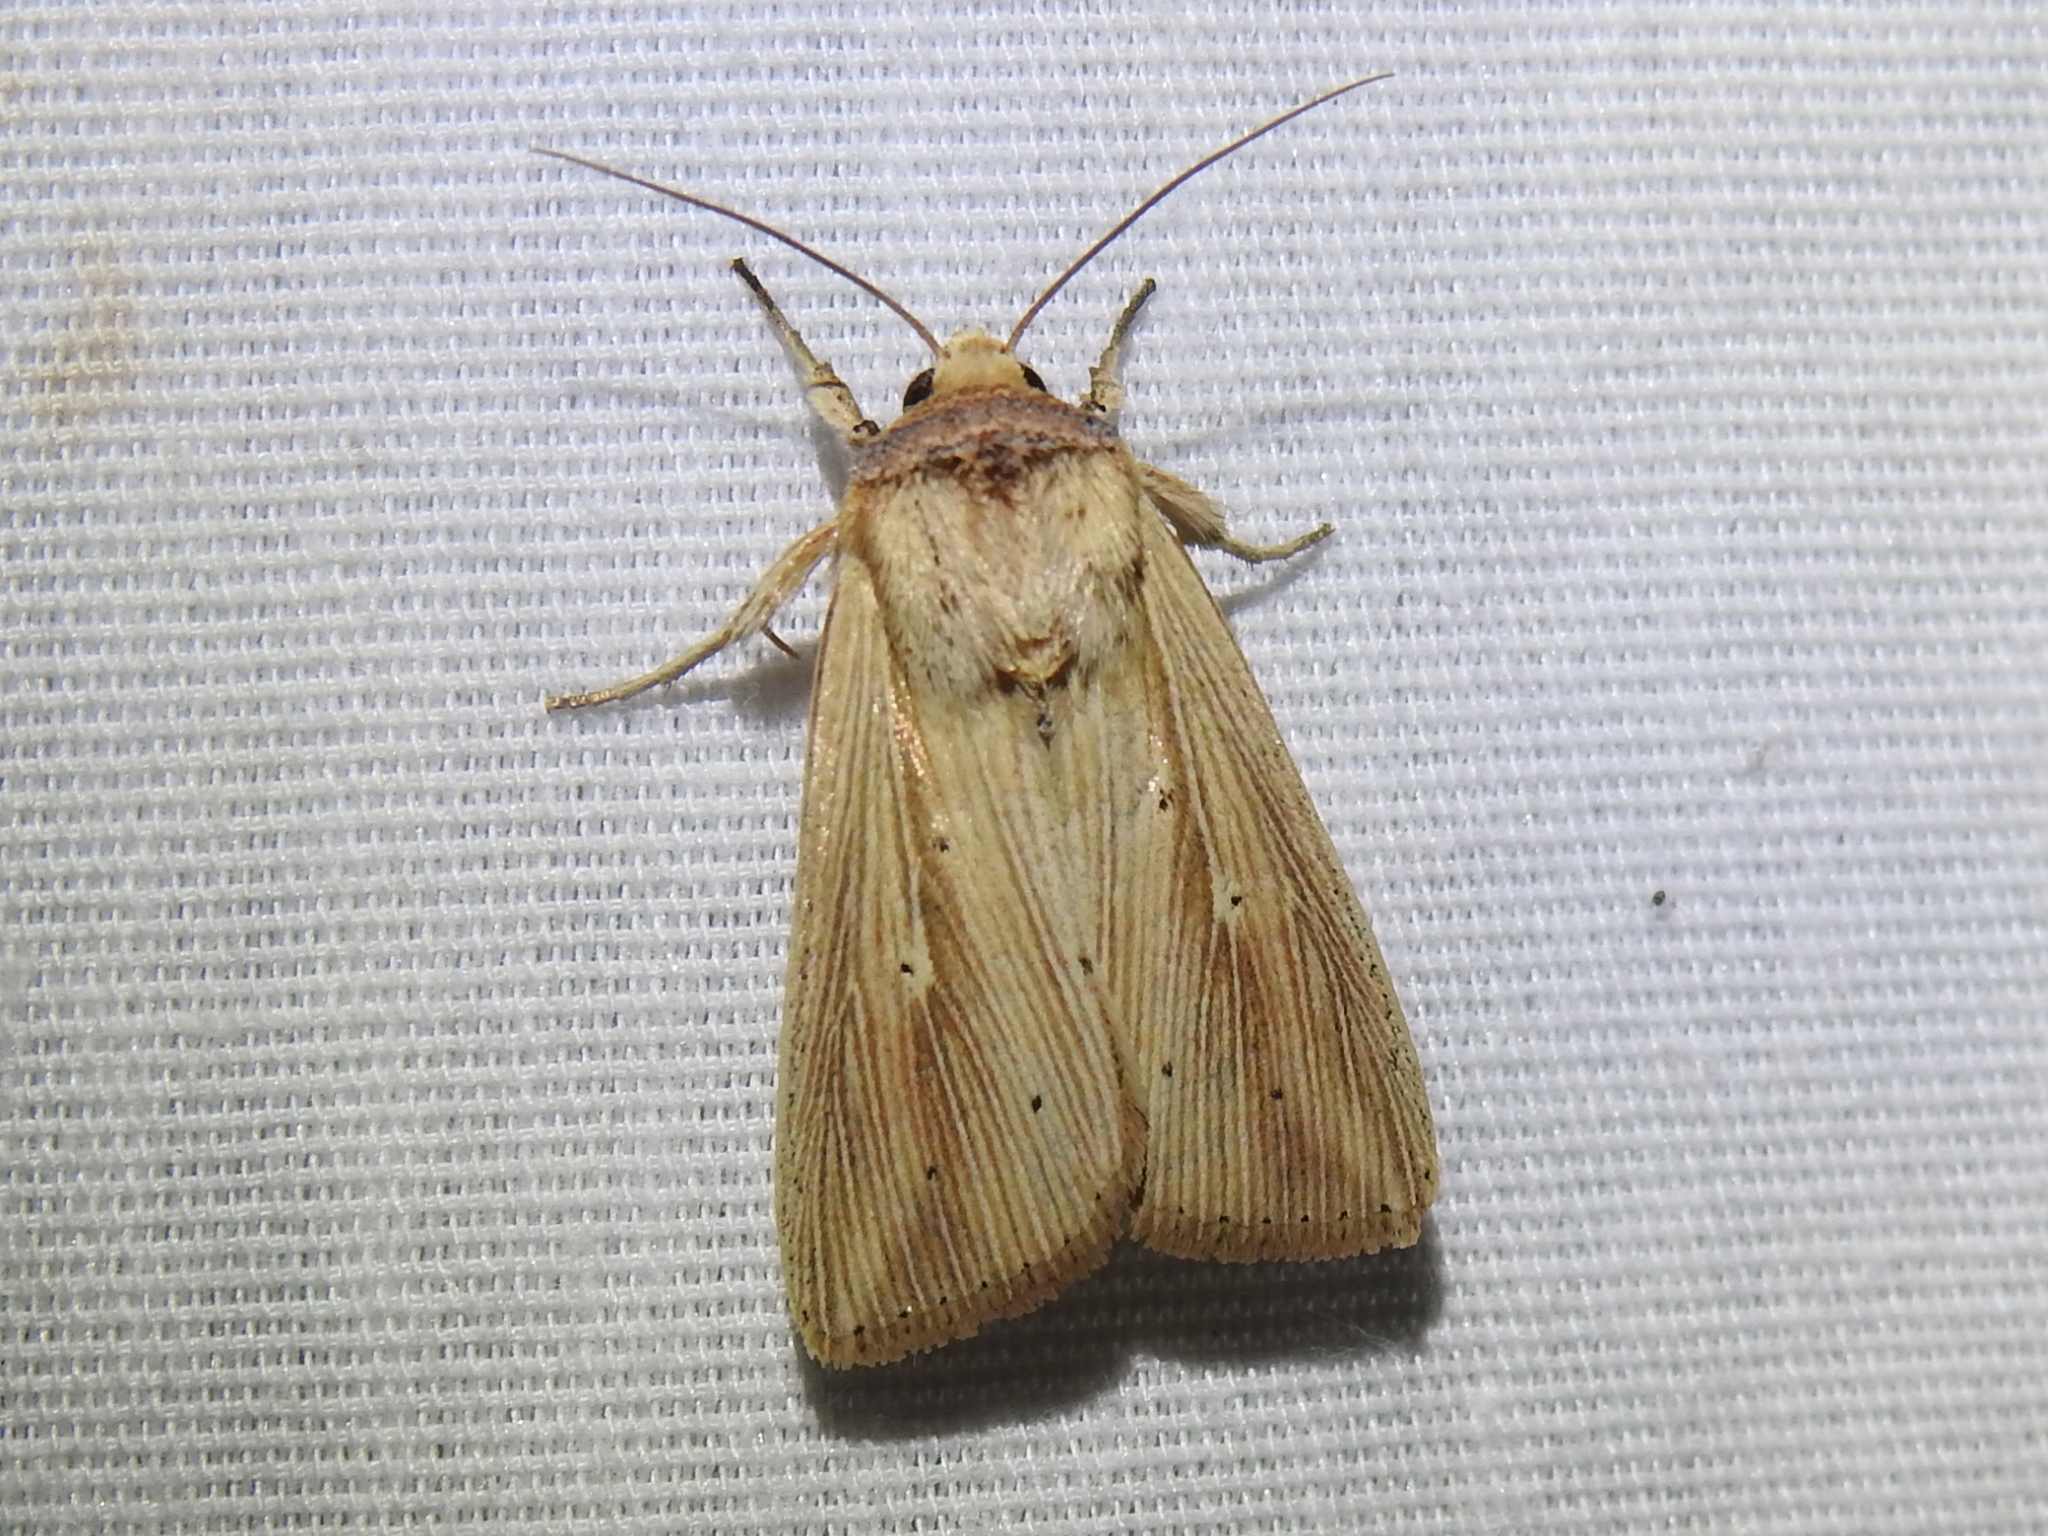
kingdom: Animalia
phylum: Arthropoda
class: Insecta
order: Lepidoptera
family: Noctuidae
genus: Leucania
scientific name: Leucania adjuta
